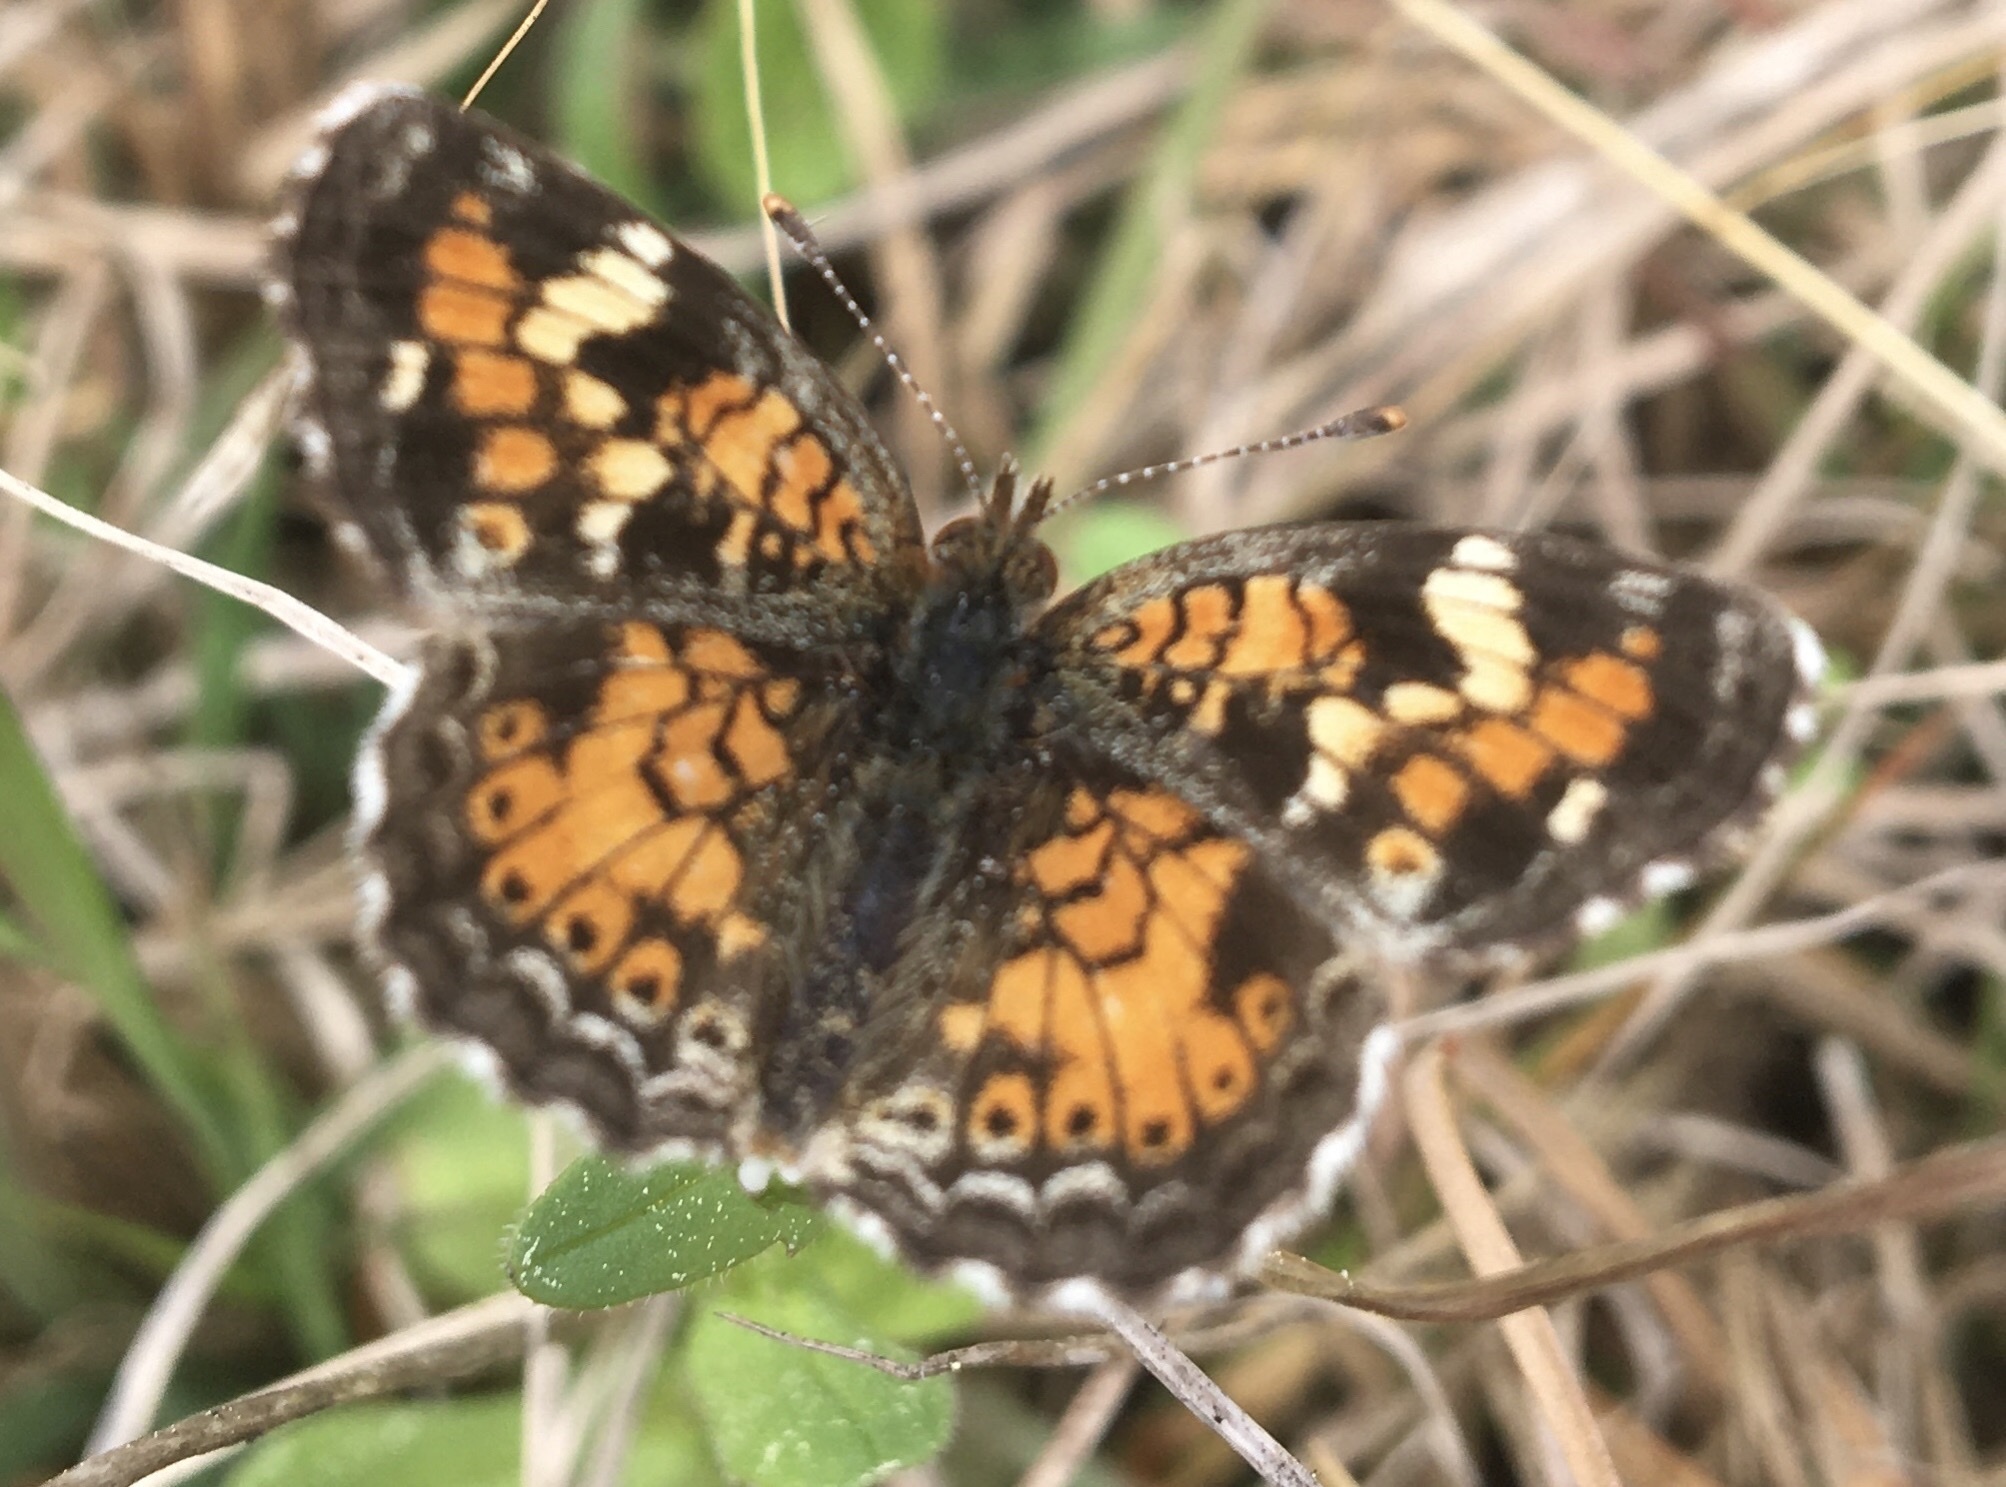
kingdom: Animalia
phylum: Arthropoda
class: Insecta
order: Lepidoptera
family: Nymphalidae
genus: Phyciodes
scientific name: Phyciodes phaon
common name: Phaon crescent
